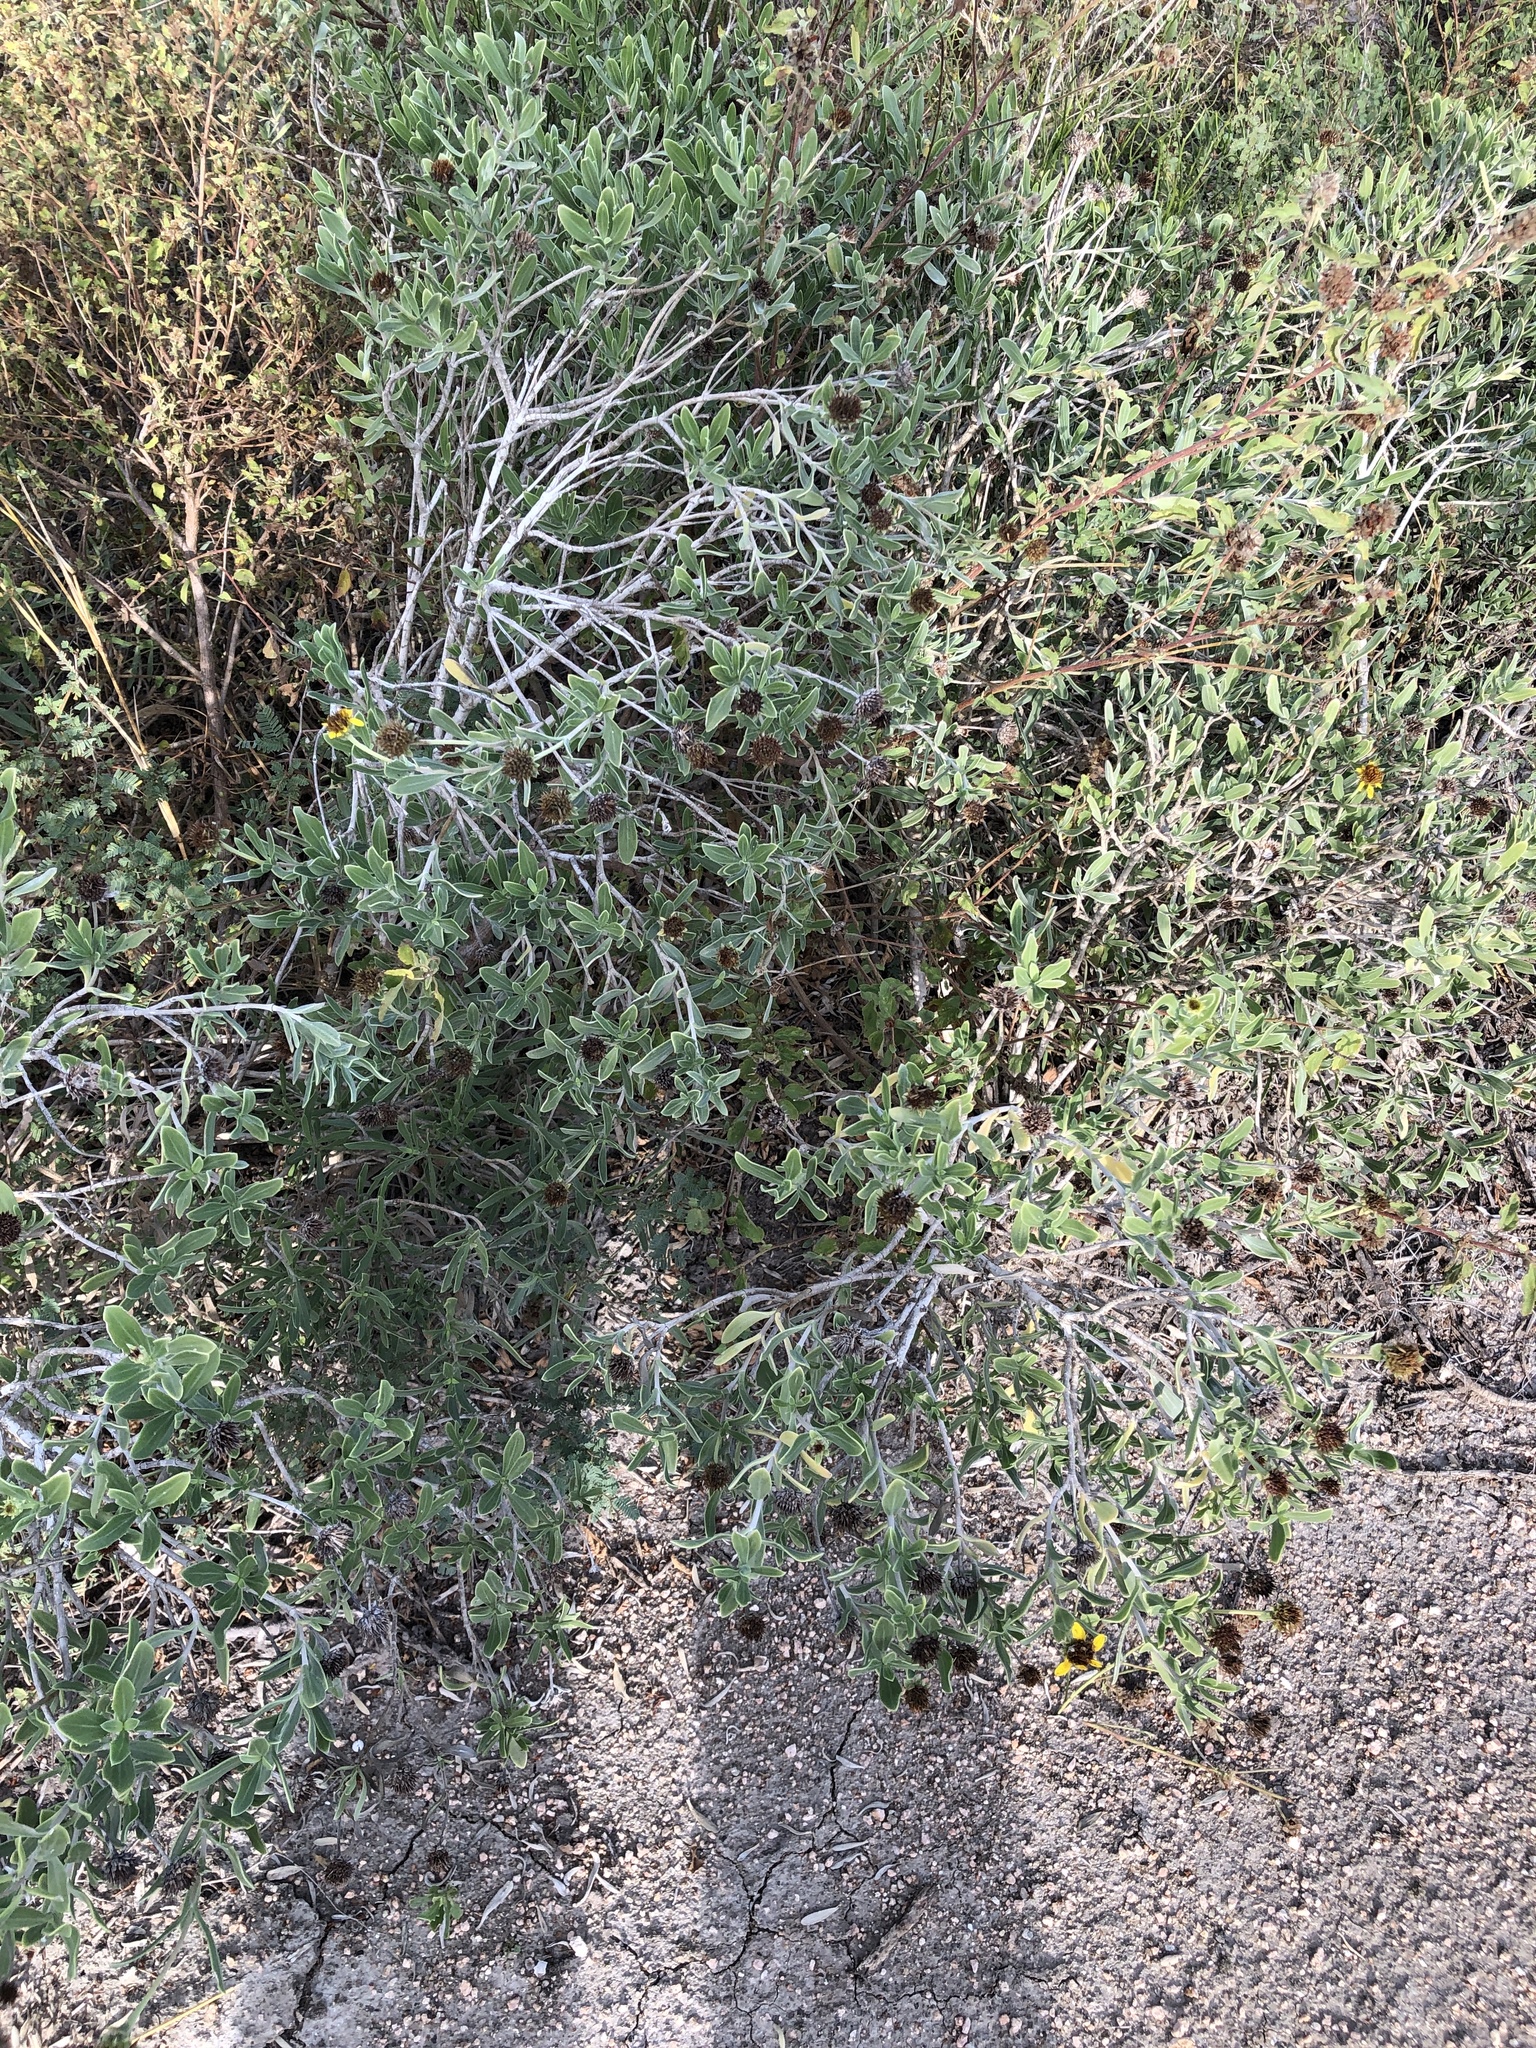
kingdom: Plantae
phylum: Tracheophyta
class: Magnoliopsida
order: Asterales
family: Asteraceae
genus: Borrichia
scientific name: Borrichia frutescens
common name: Sea oxeye
